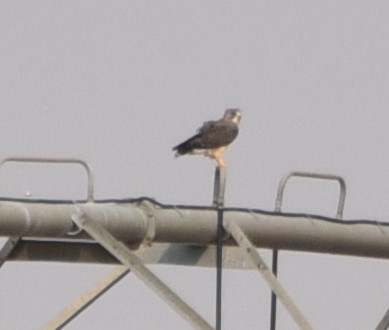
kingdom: Animalia
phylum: Chordata
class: Aves
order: Accipitriformes
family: Accipitridae
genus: Buteo
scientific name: Buteo swainsoni
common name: Swainson's hawk
